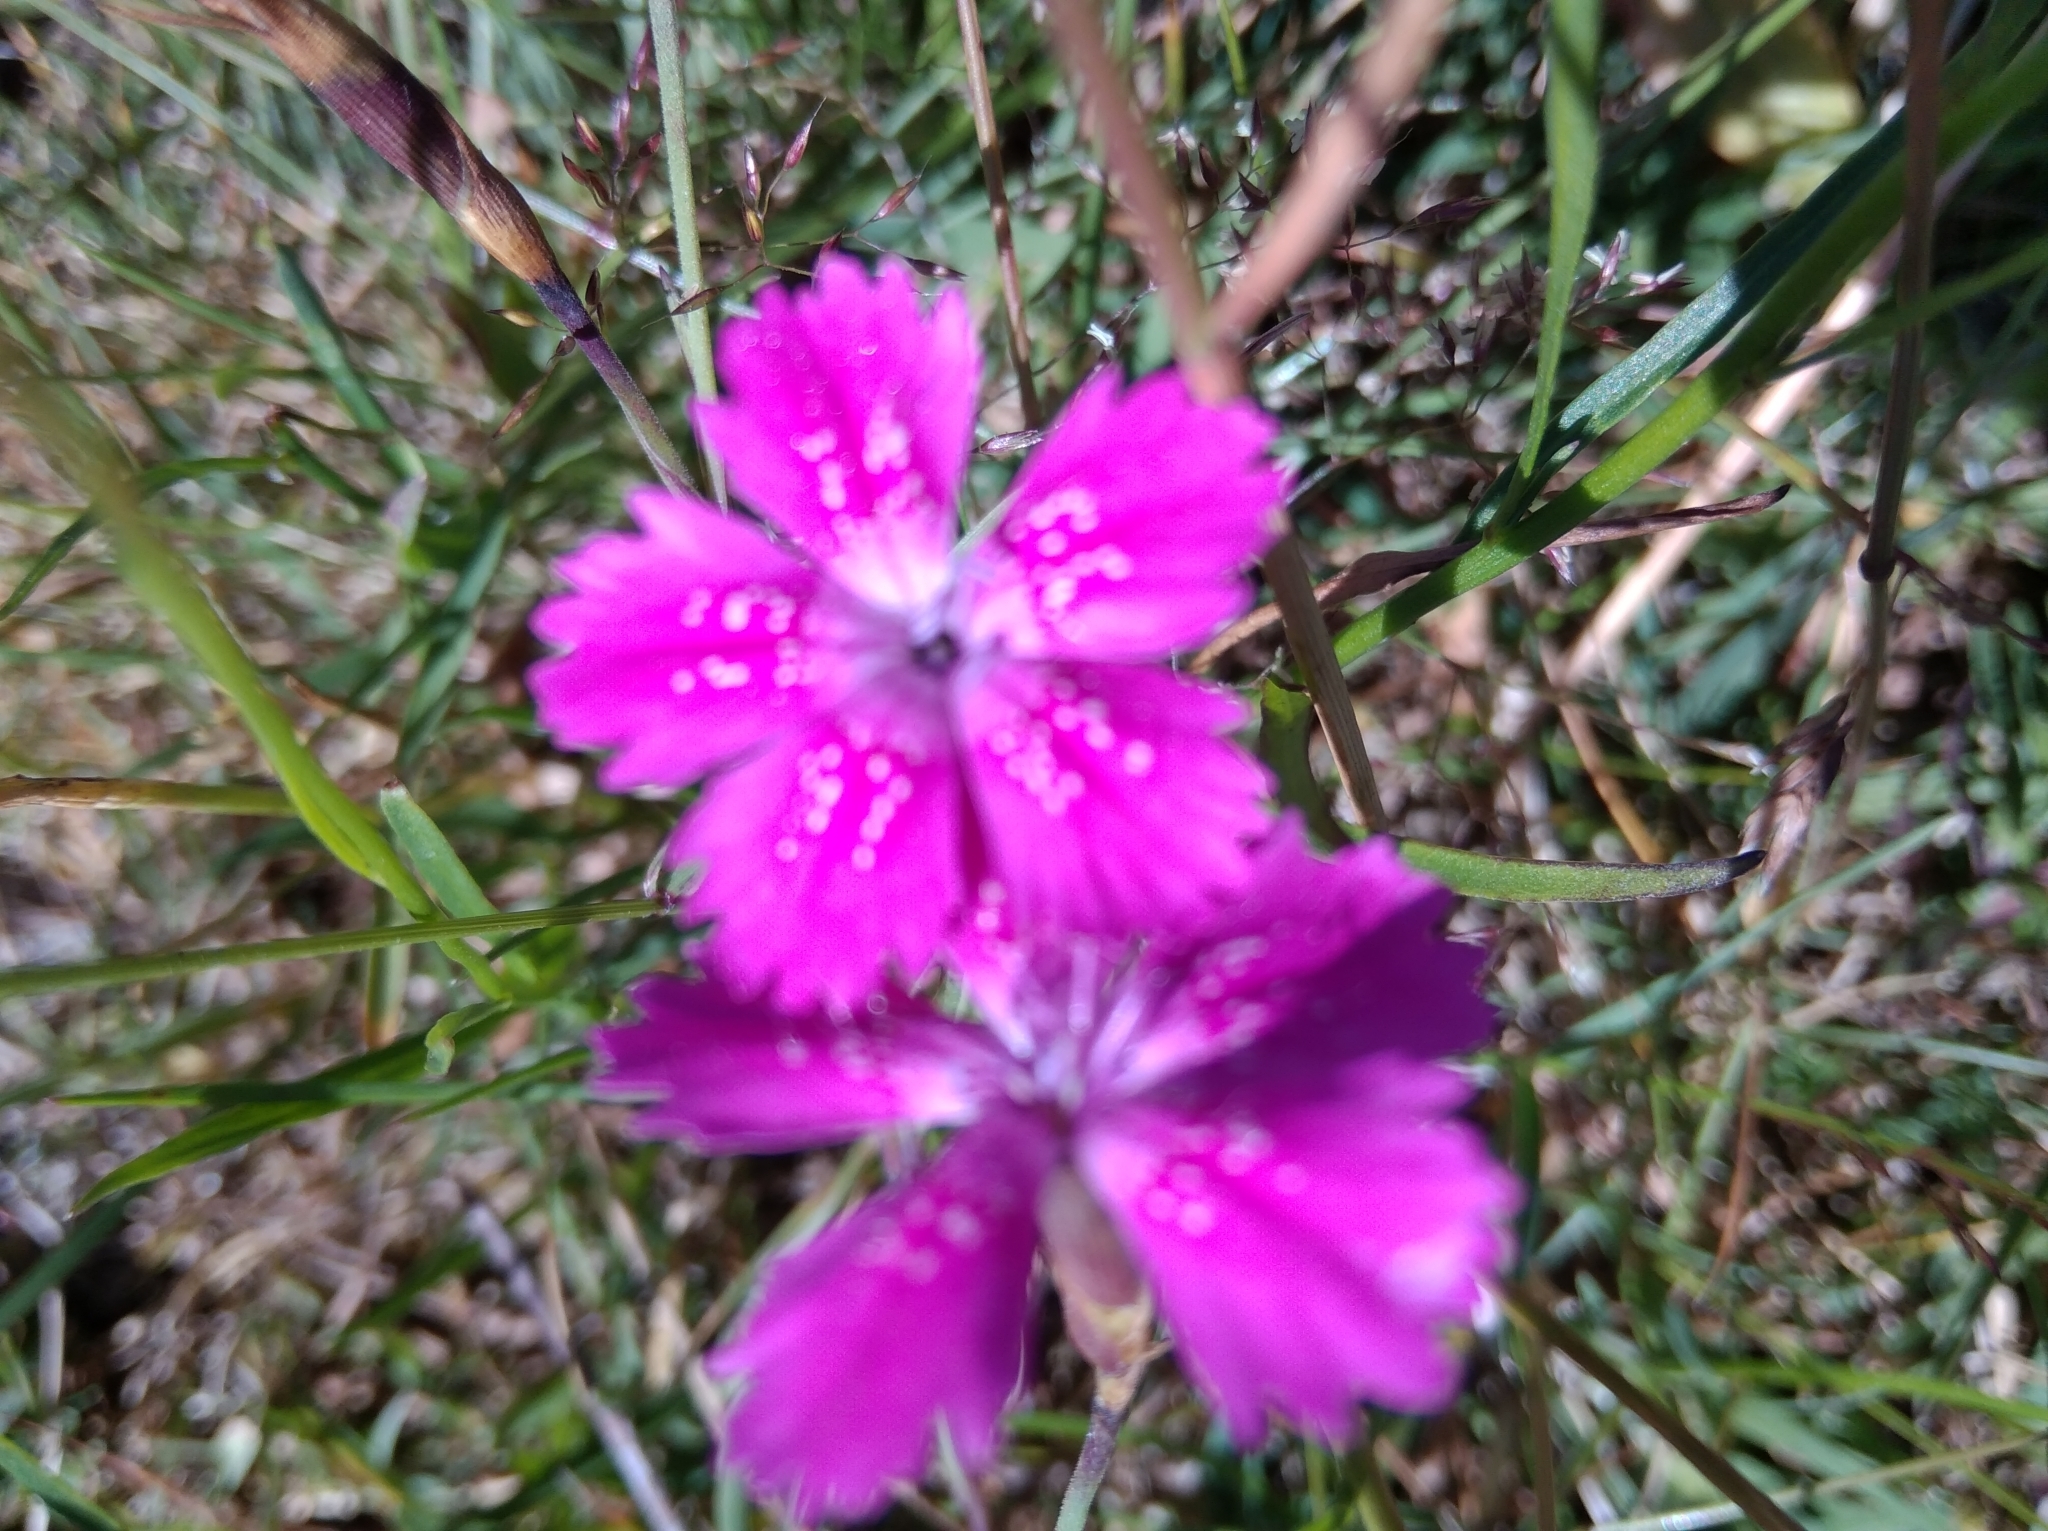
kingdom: Plantae
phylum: Tracheophyta
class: Magnoliopsida
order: Caryophyllales
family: Caryophyllaceae
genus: Dianthus
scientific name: Dianthus deltoides
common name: Maiden pink
